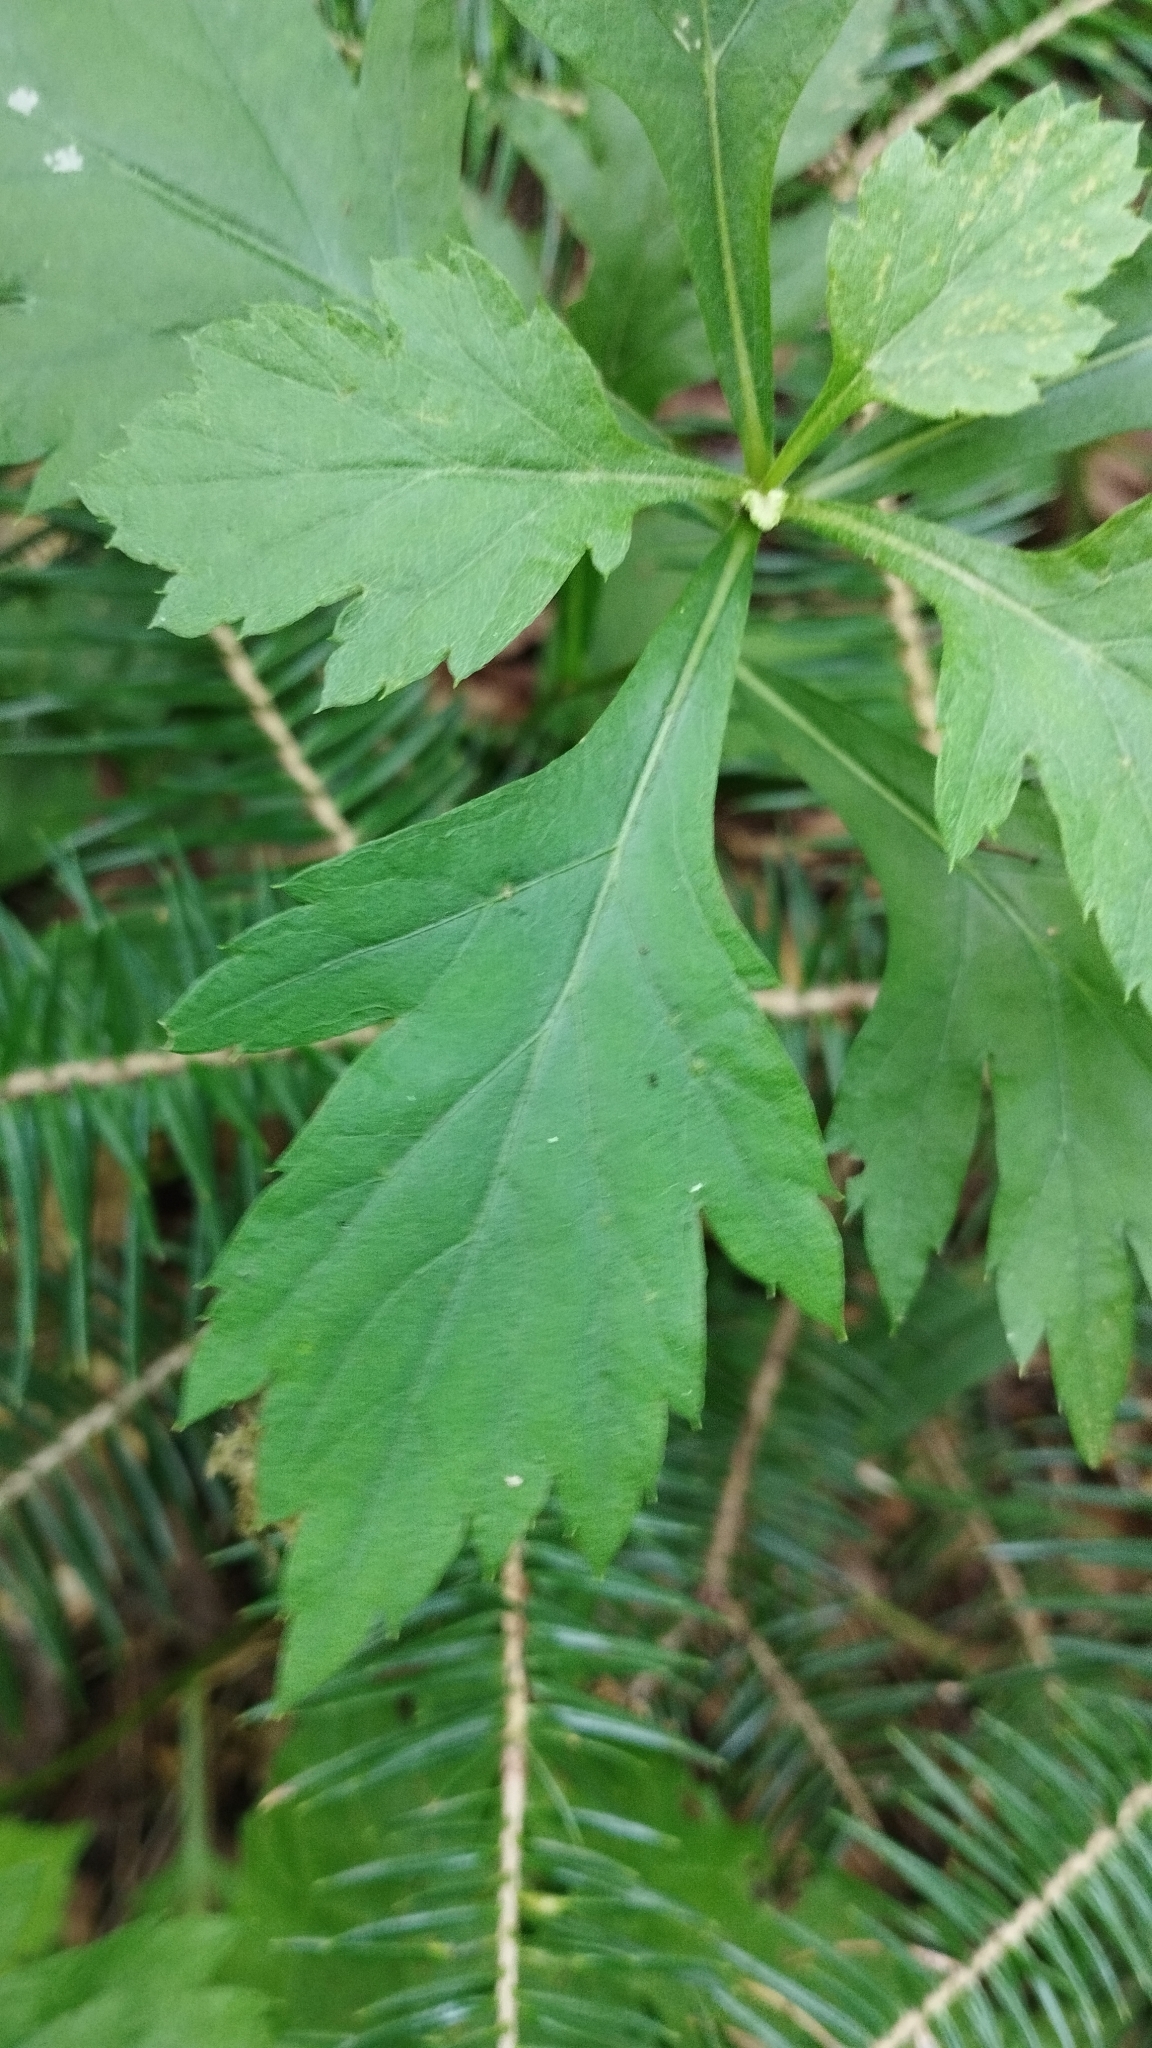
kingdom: Plantae
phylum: Tracheophyta
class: Magnoliopsida
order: Asterales
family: Asteraceae
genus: Artemisia
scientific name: Artemisia stolonifera
